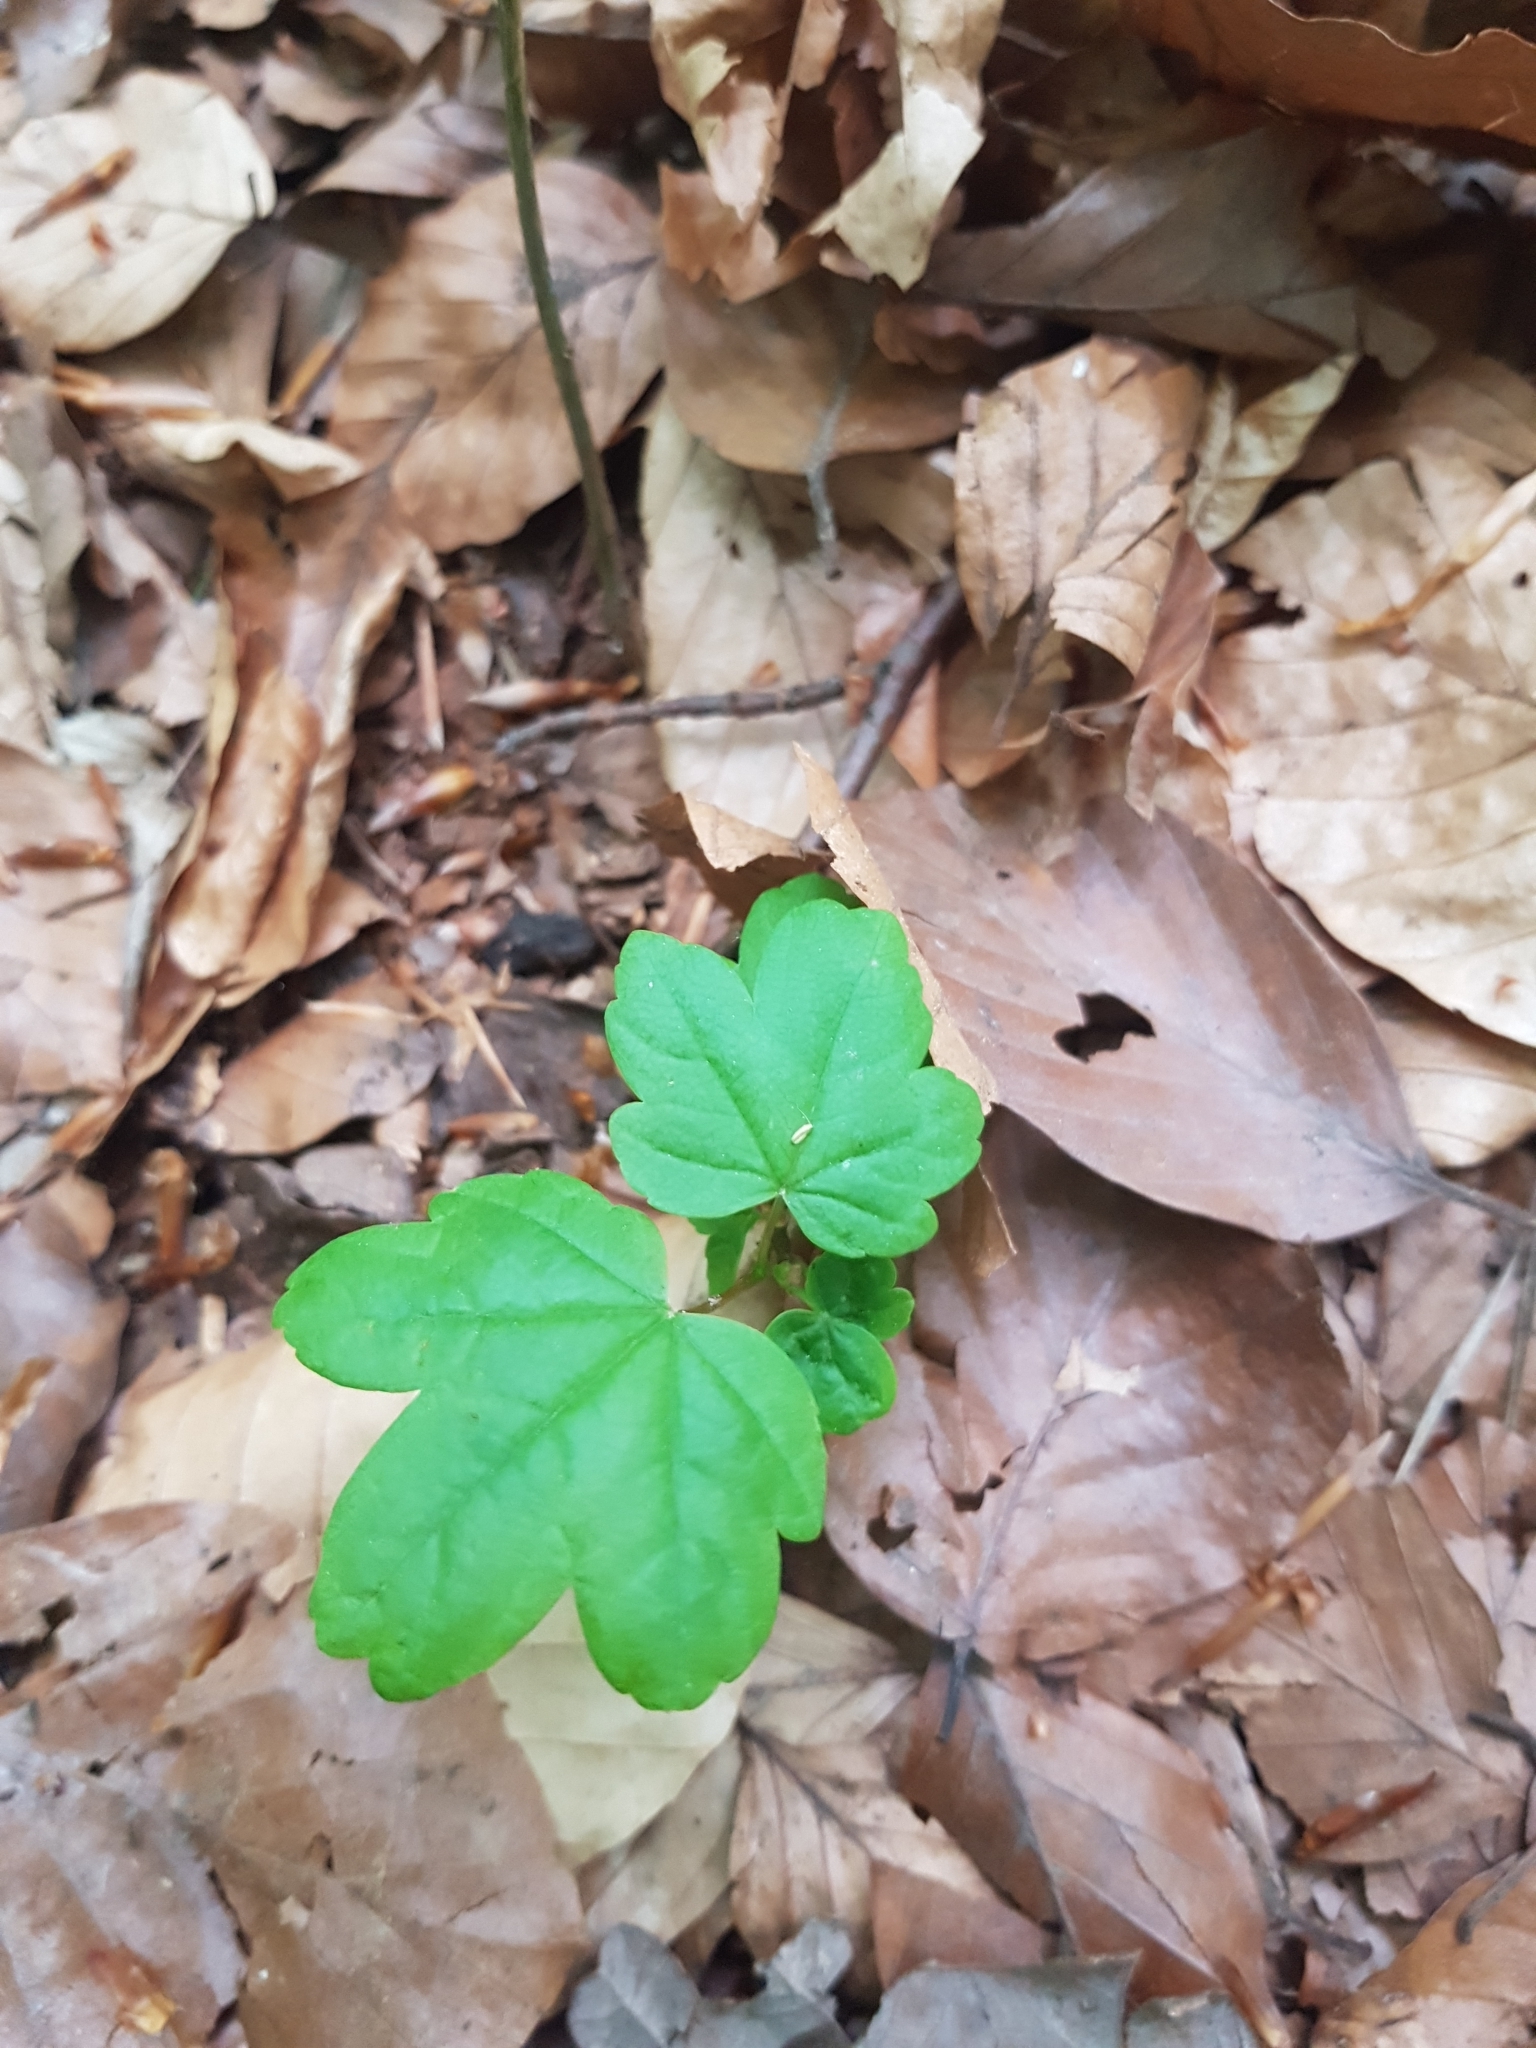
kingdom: Plantae
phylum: Tracheophyta
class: Magnoliopsida
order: Sapindales
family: Sapindaceae
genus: Acer
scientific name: Acer campestre
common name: Field maple
